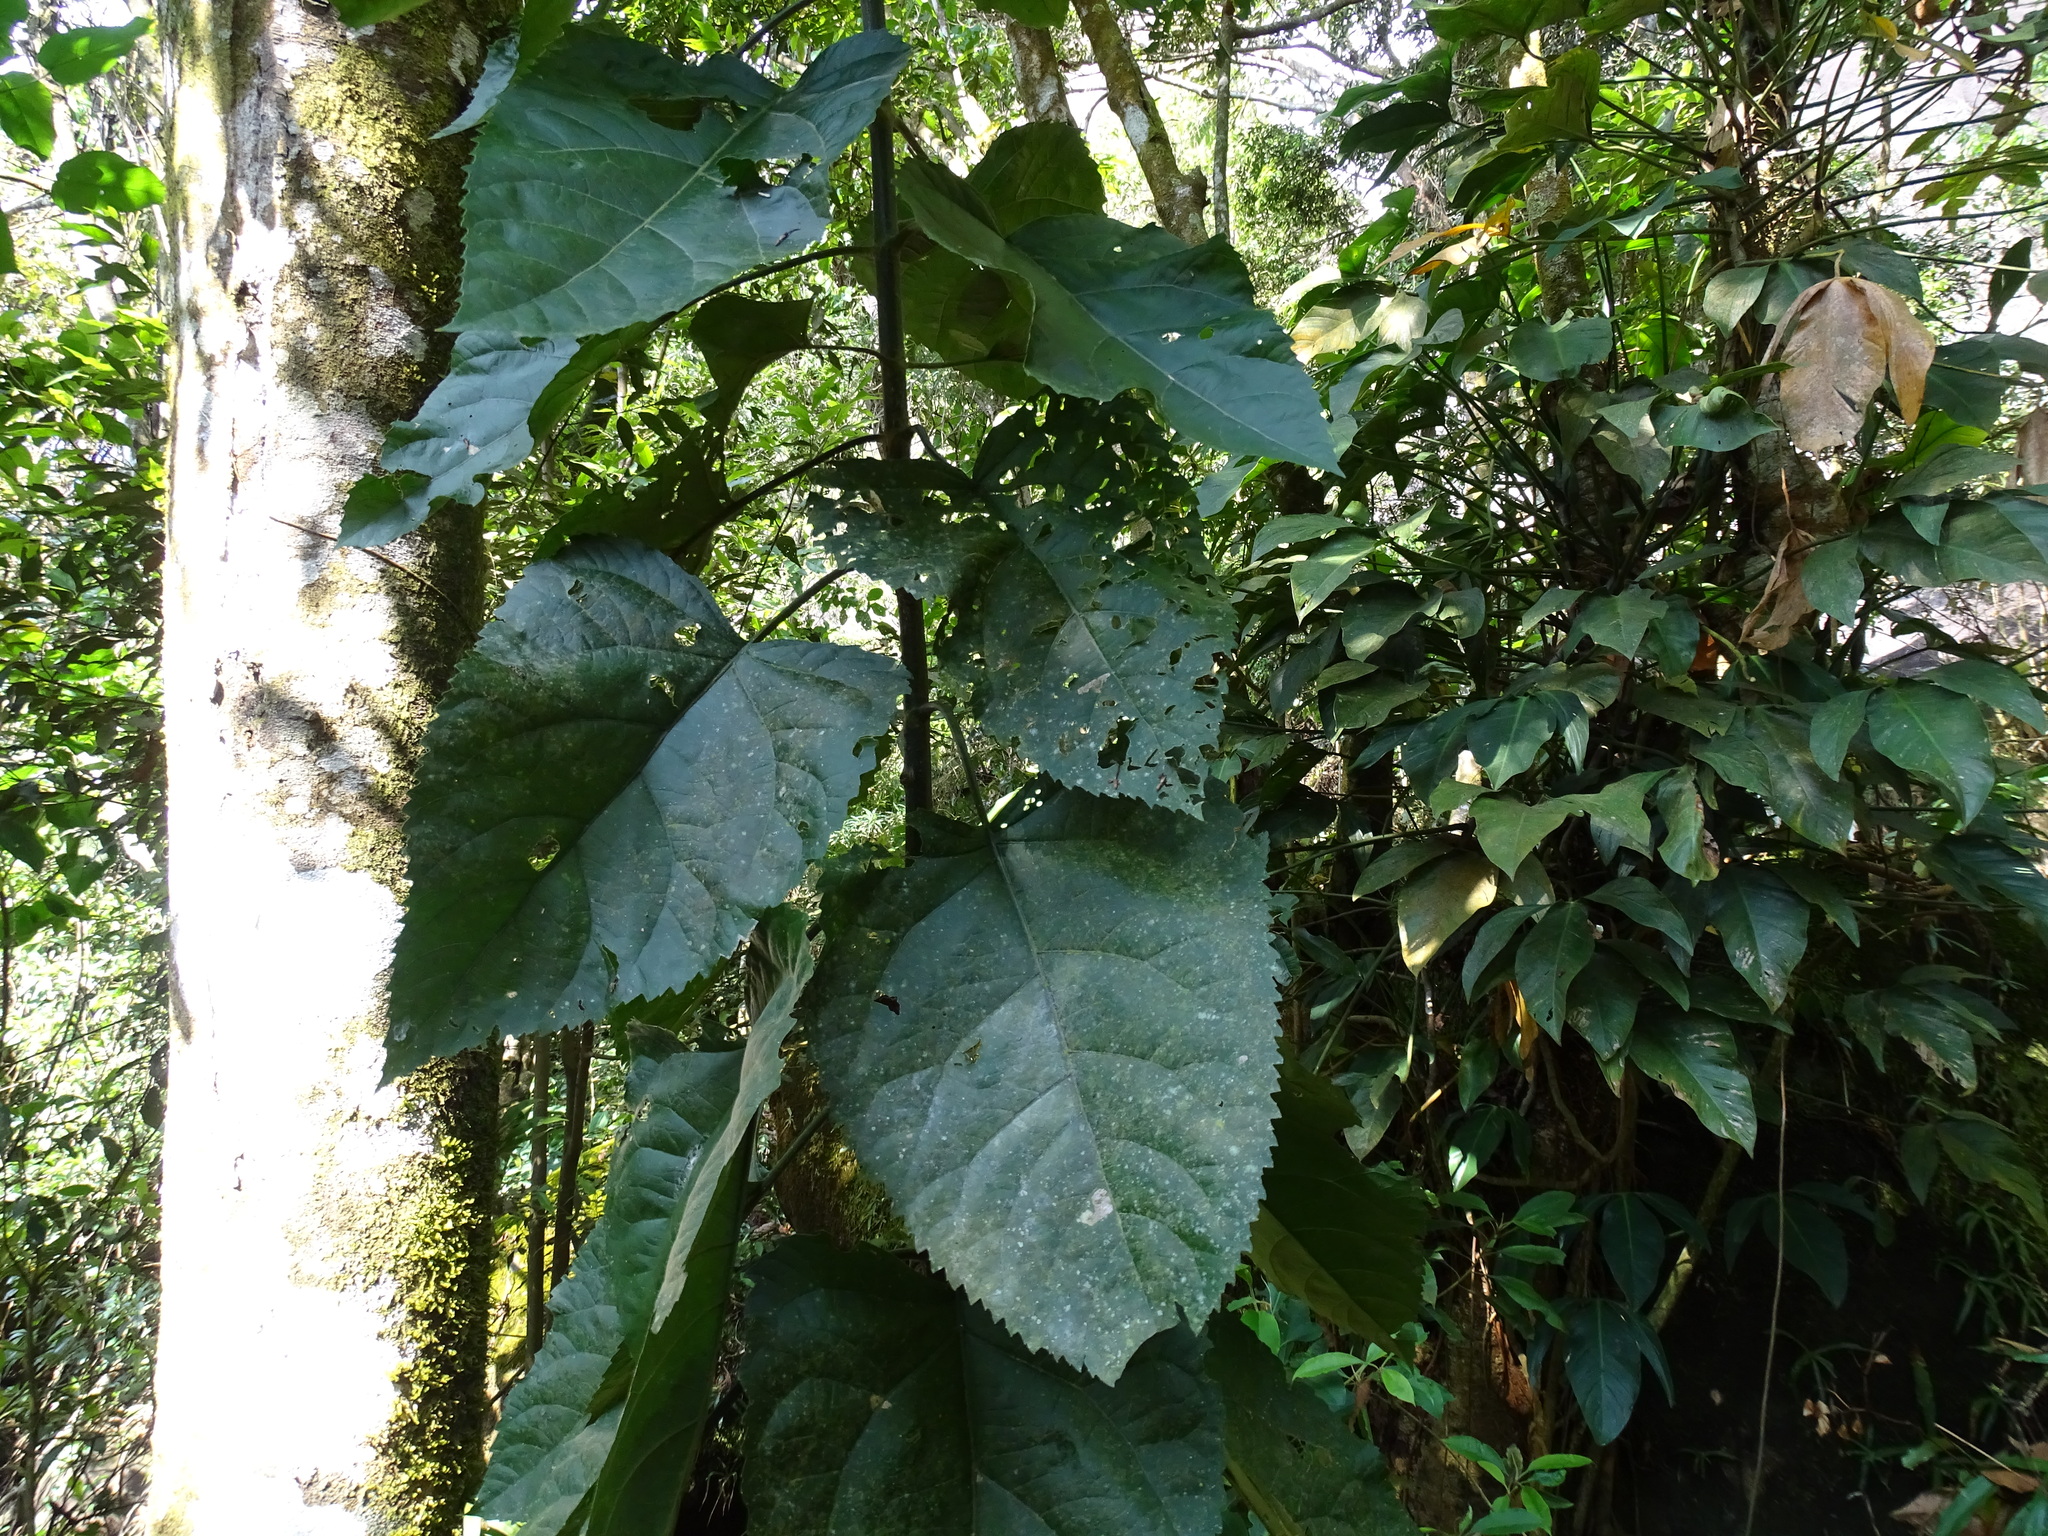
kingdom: Plantae
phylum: Tracheophyta
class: Magnoliopsida
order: Asterales
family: Asteraceae
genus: Critonia
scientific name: Critonia quadrangularis
